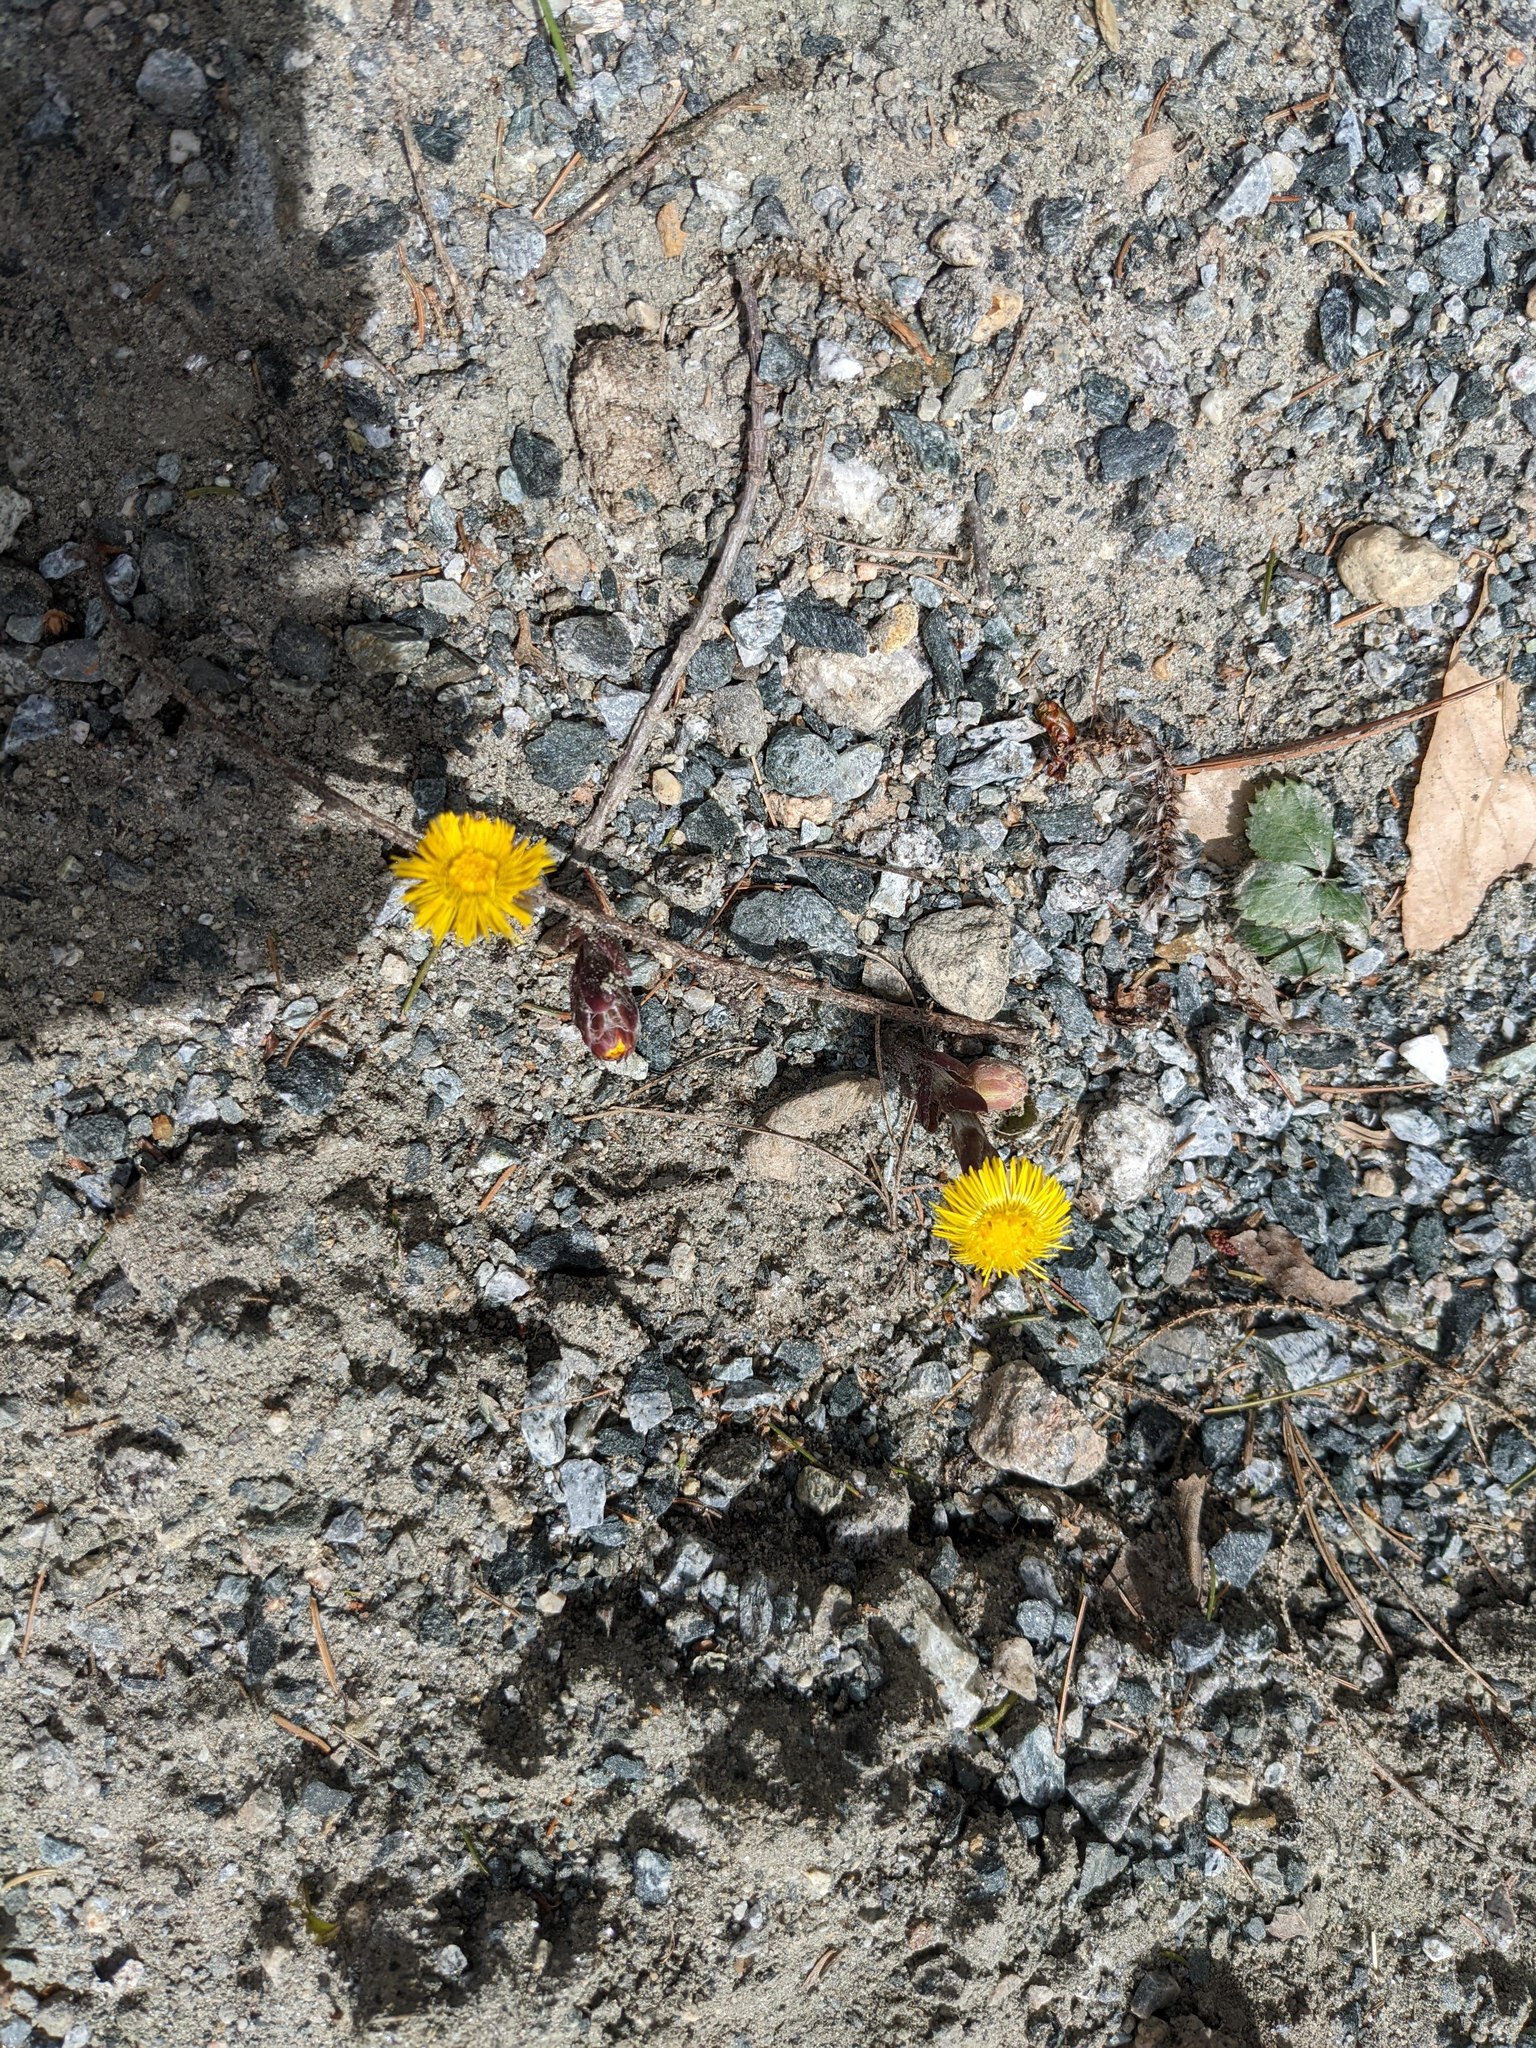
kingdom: Plantae
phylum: Tracheophyta
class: Magnoliopsida
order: Asterales
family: Asteraceae
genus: Tussilago
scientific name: Tussilago farfara
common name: Coltsfoot
